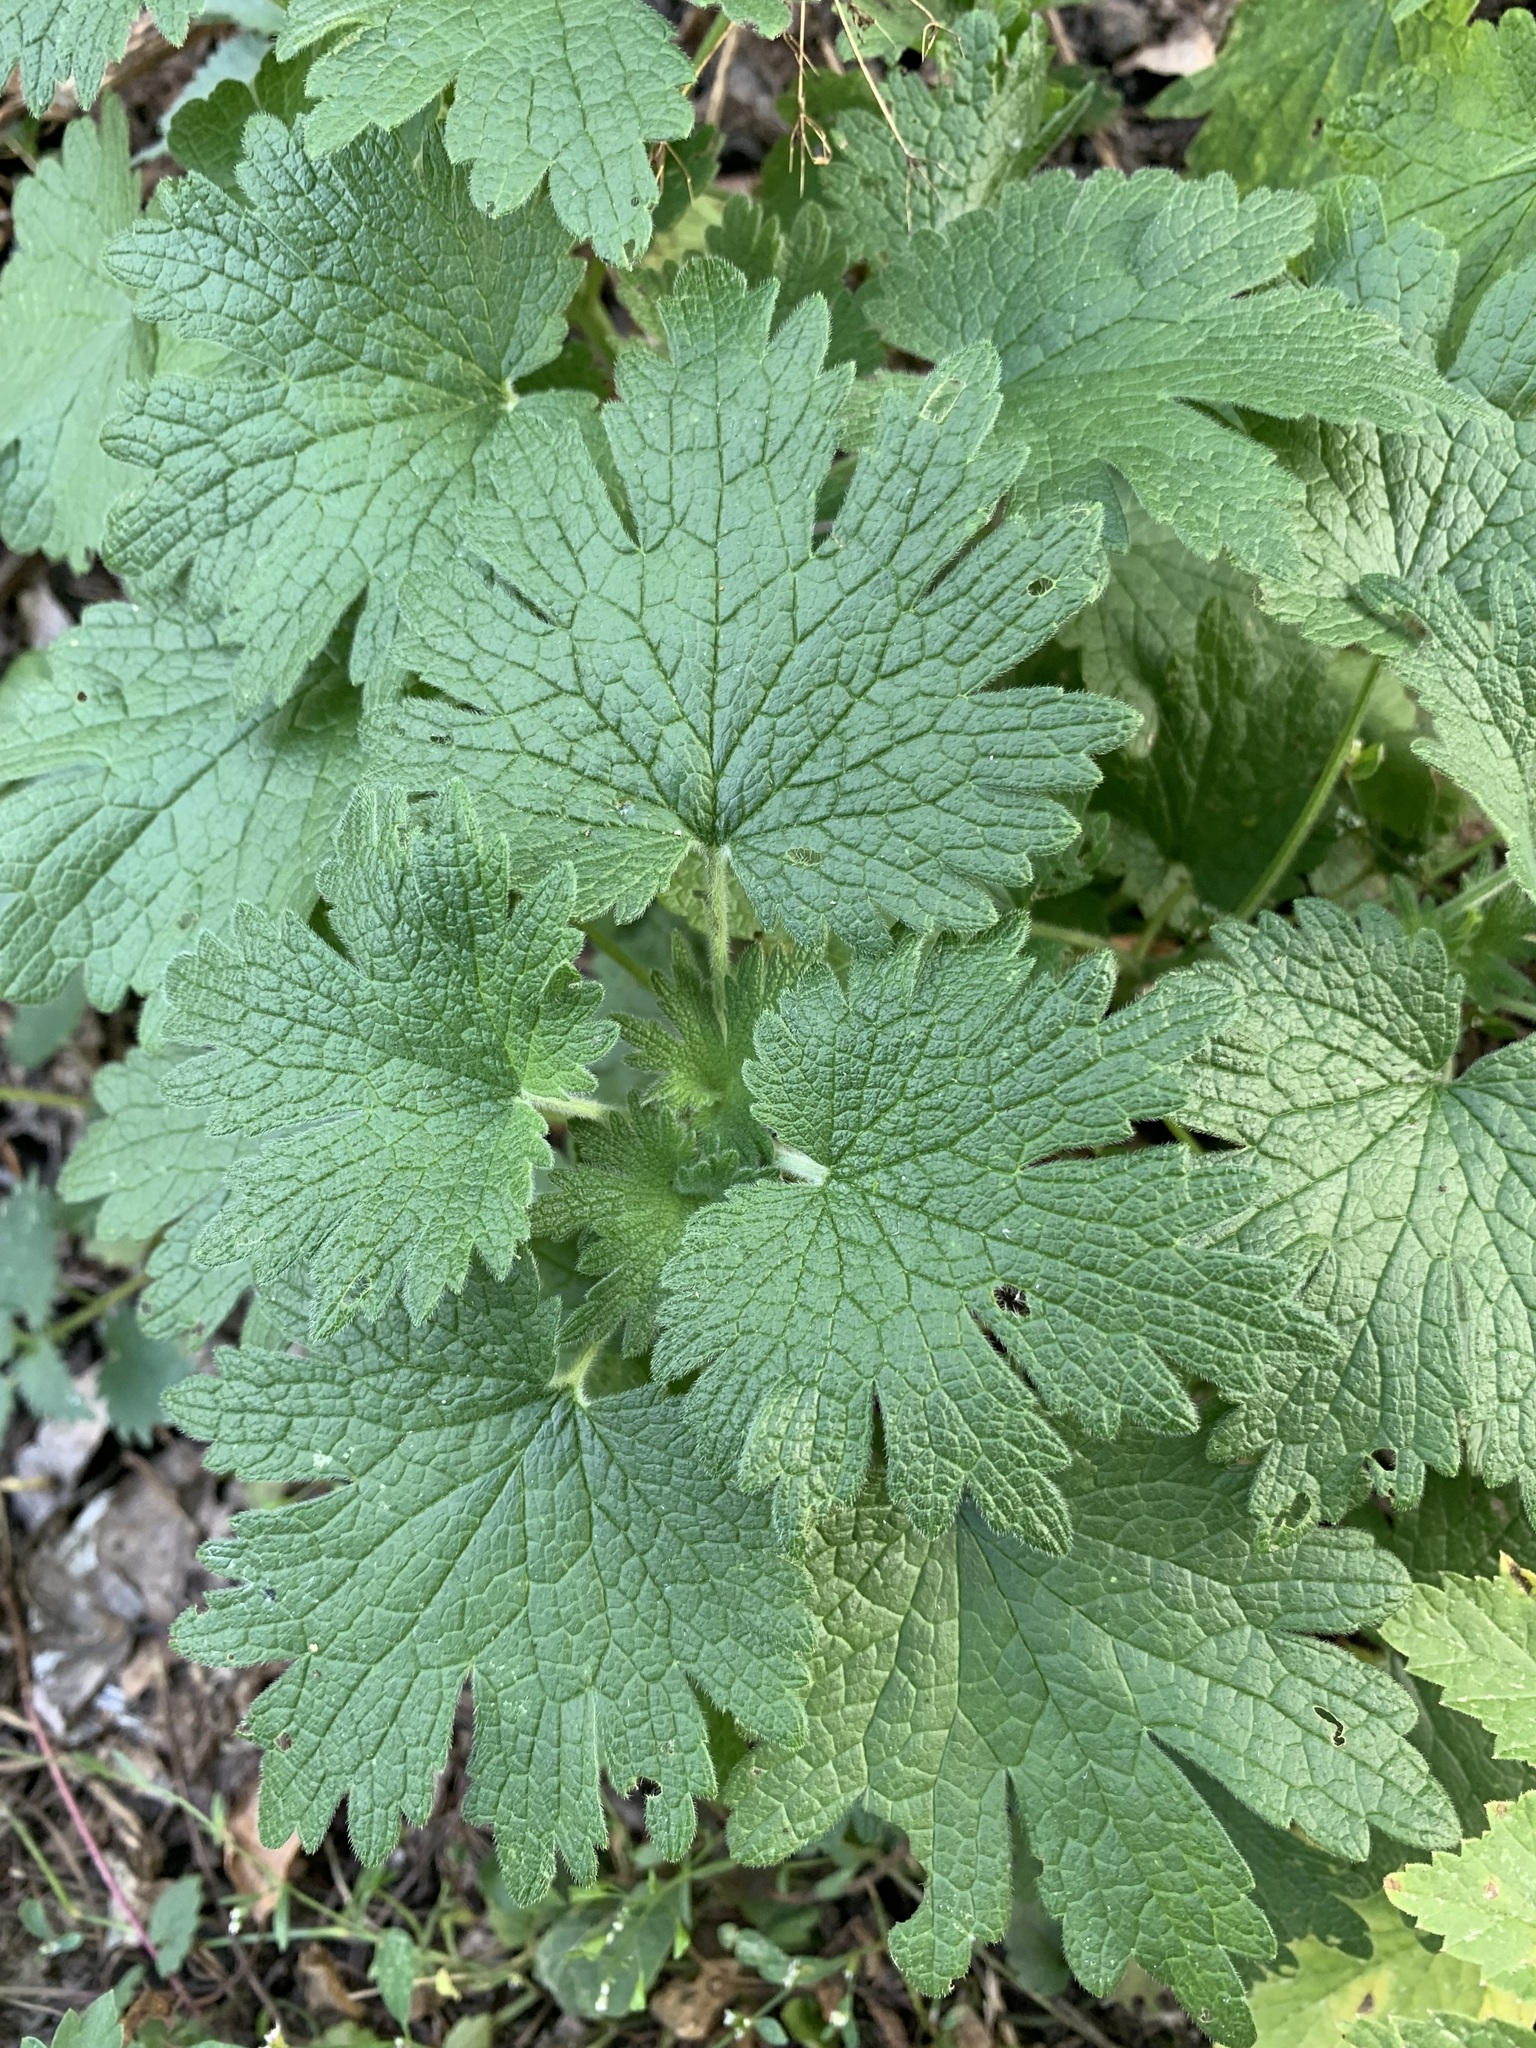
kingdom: Plantae
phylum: Tracheophyta
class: Magnoliopsida
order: Lamiales
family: Lamiaceae
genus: Leonurus
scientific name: Leonurus quinquelobatus
